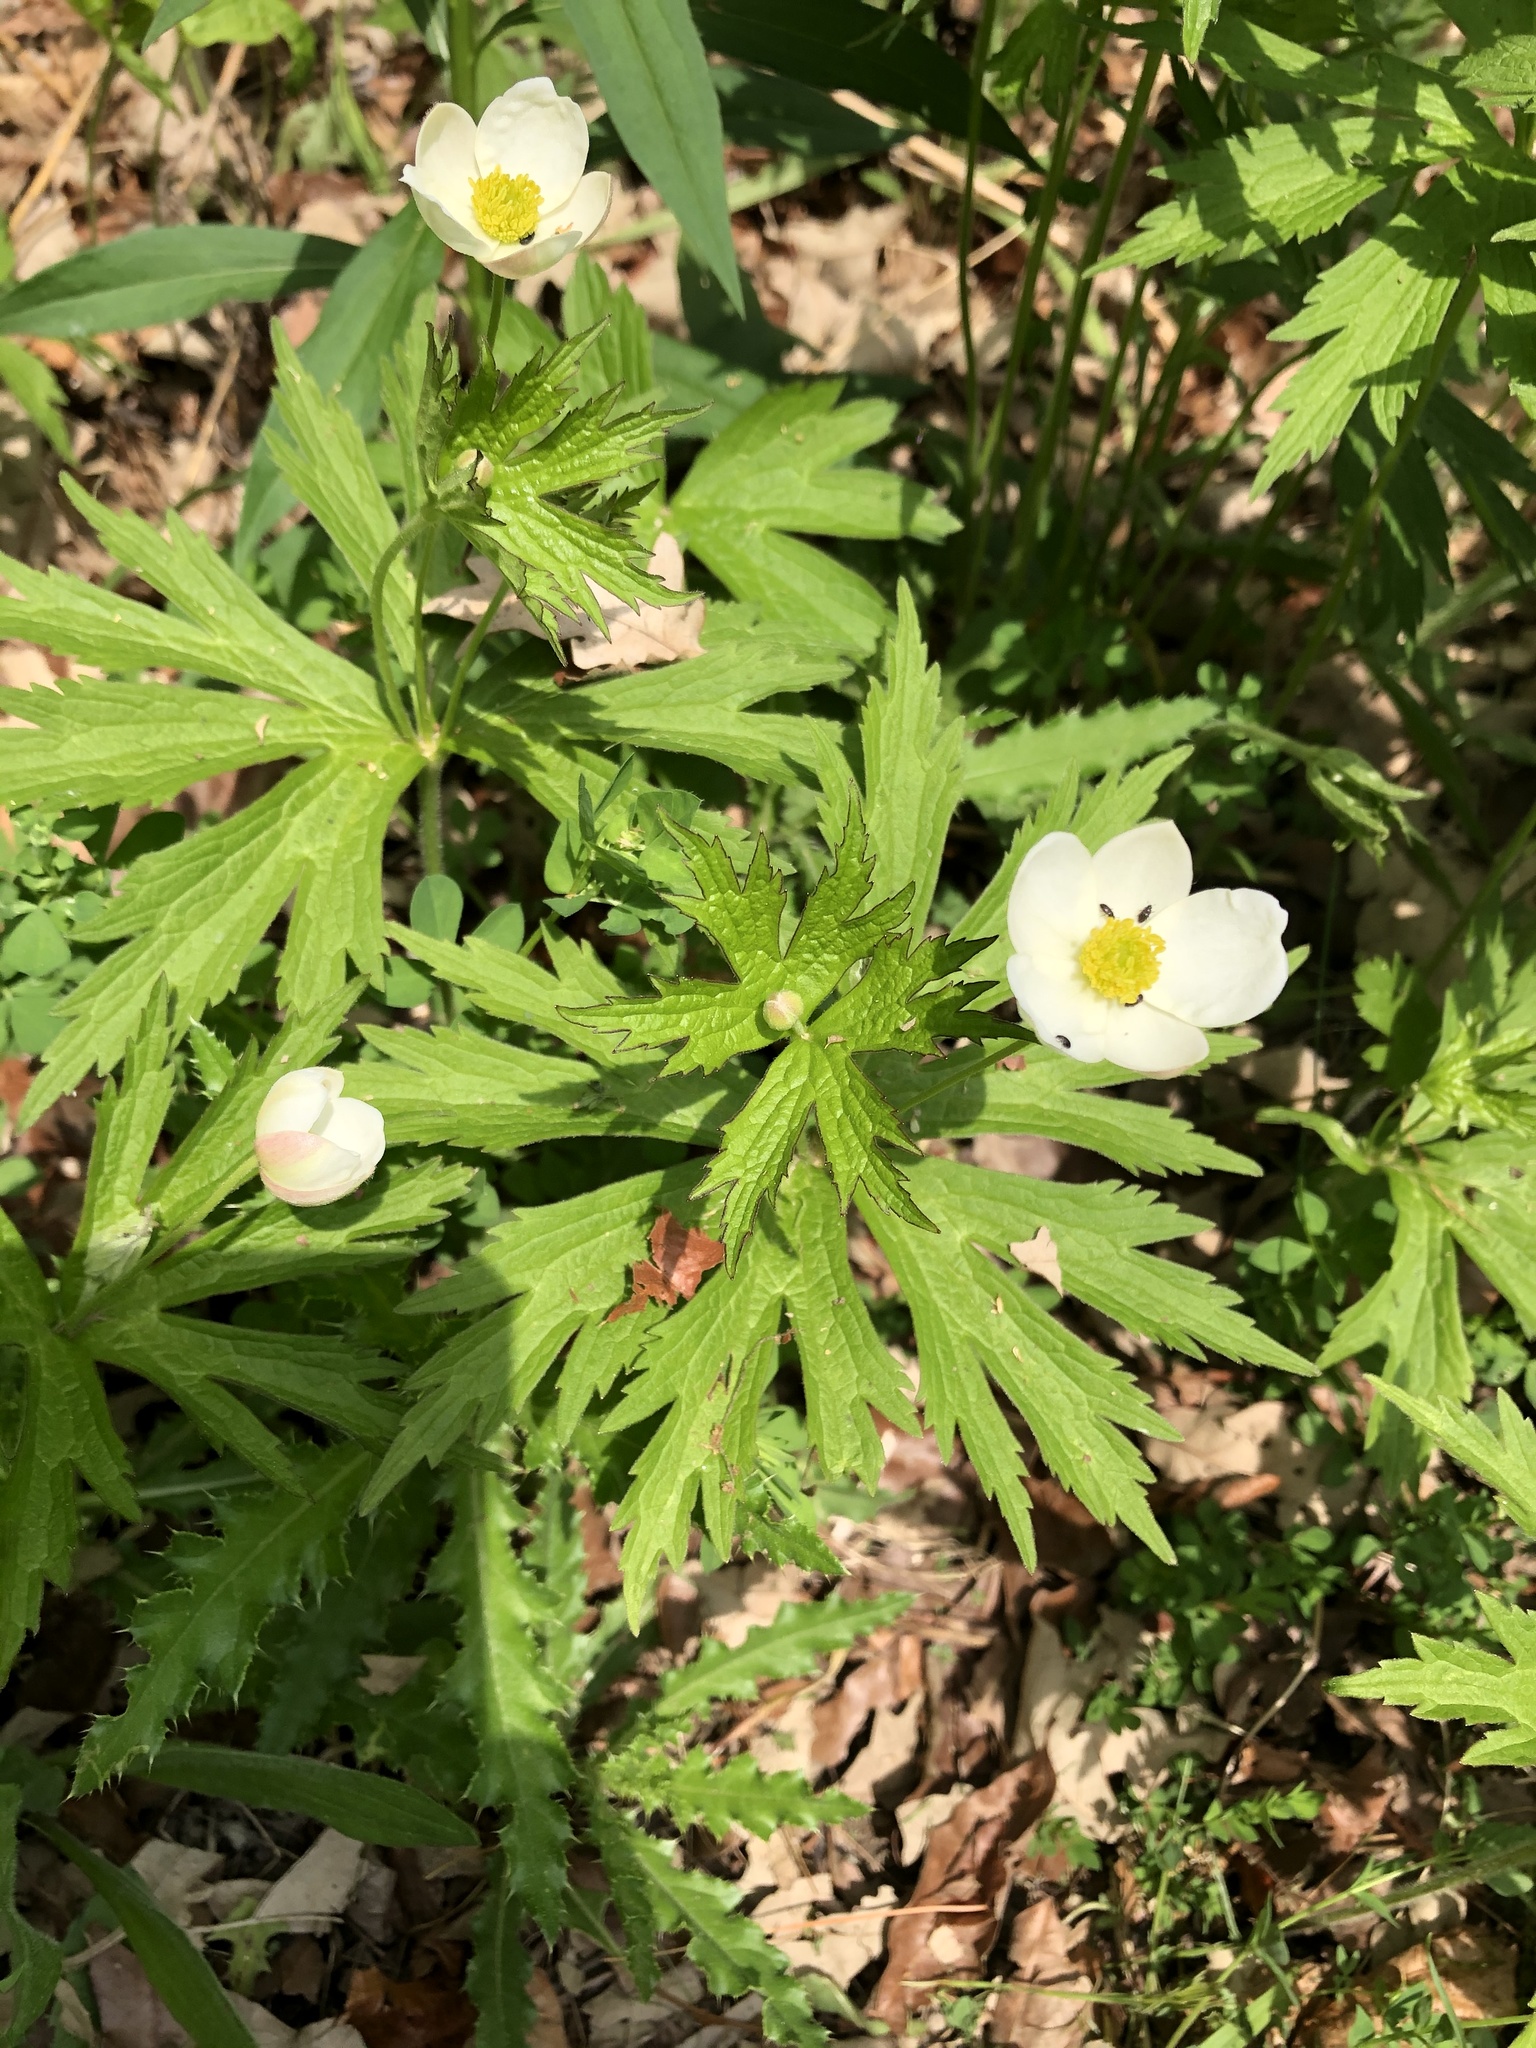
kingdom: Plantae
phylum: Tracheophyta
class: Magnoliopsida
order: Ranunculales
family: Ranunculaceae
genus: Anemonastrum
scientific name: Anemonastrum canadense
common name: Canada anemone
